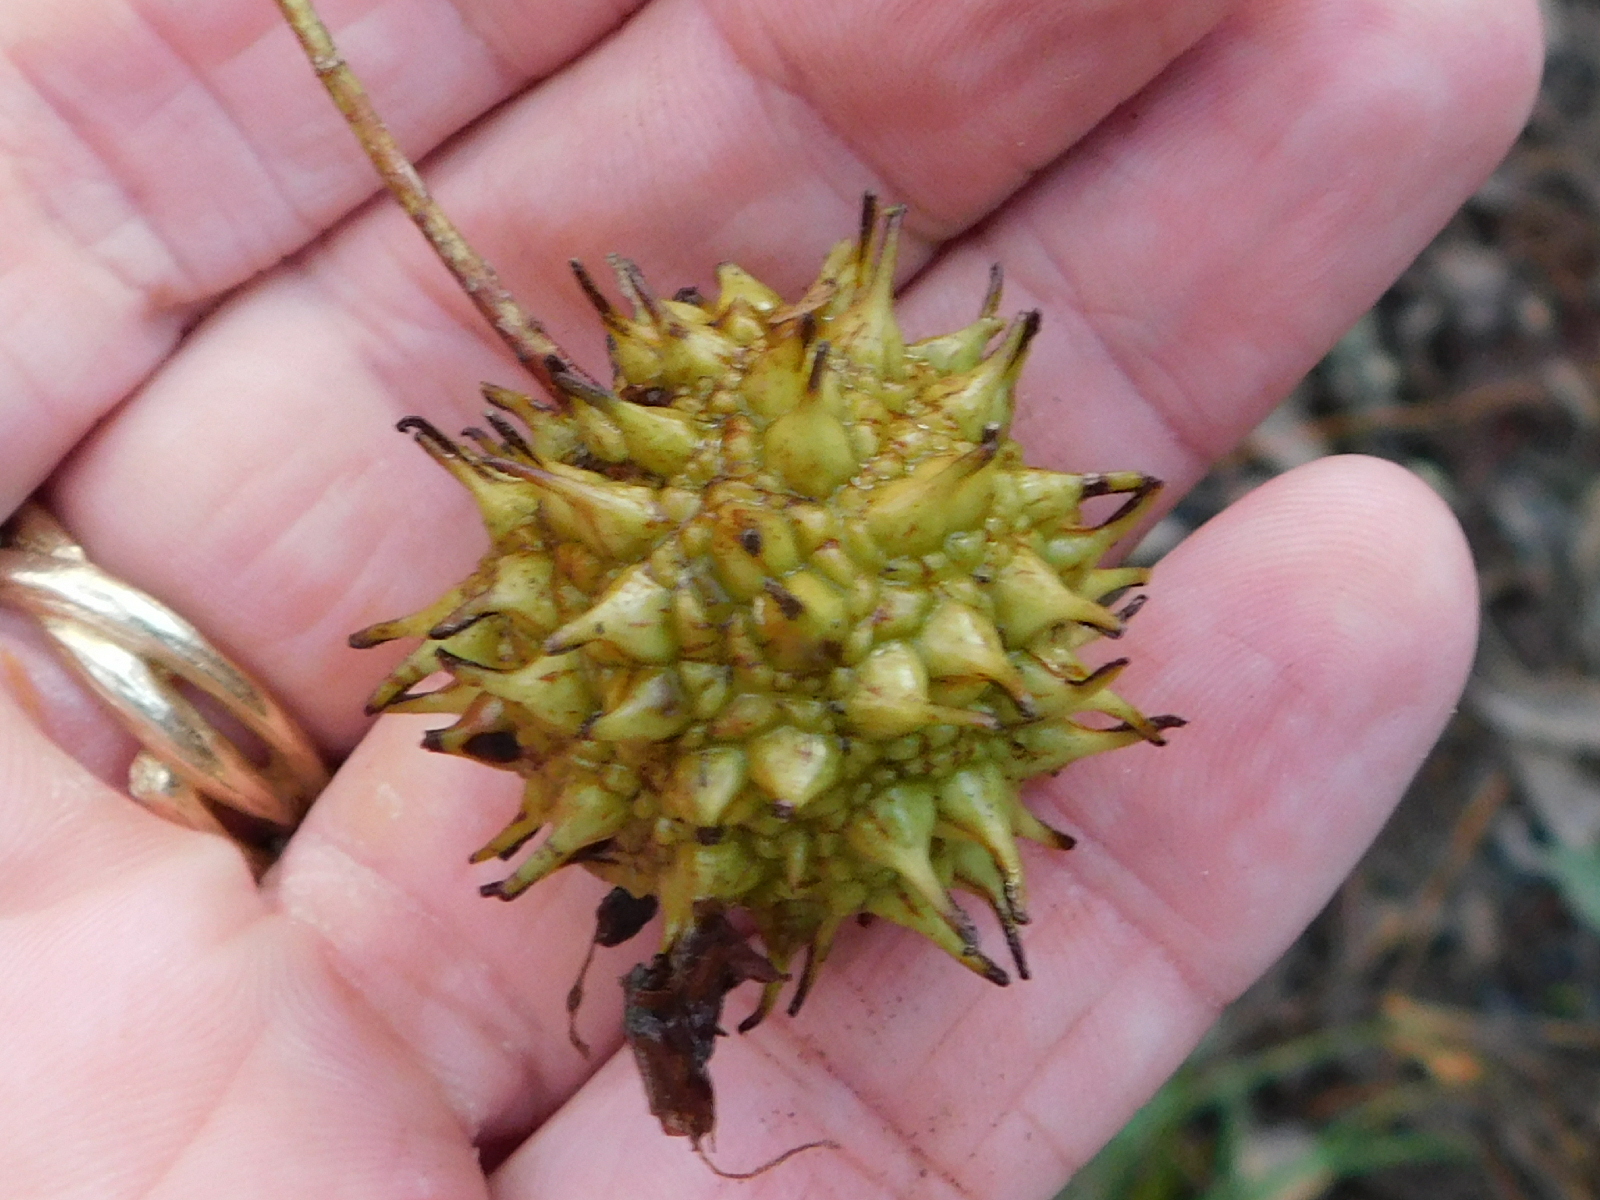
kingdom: Plantae
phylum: Tracheophyta
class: Magnoliopsida
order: Saxifragales
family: Altingiaceae
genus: Liquidambar
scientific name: Liquidambar styraciflua
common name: Sweet gum
